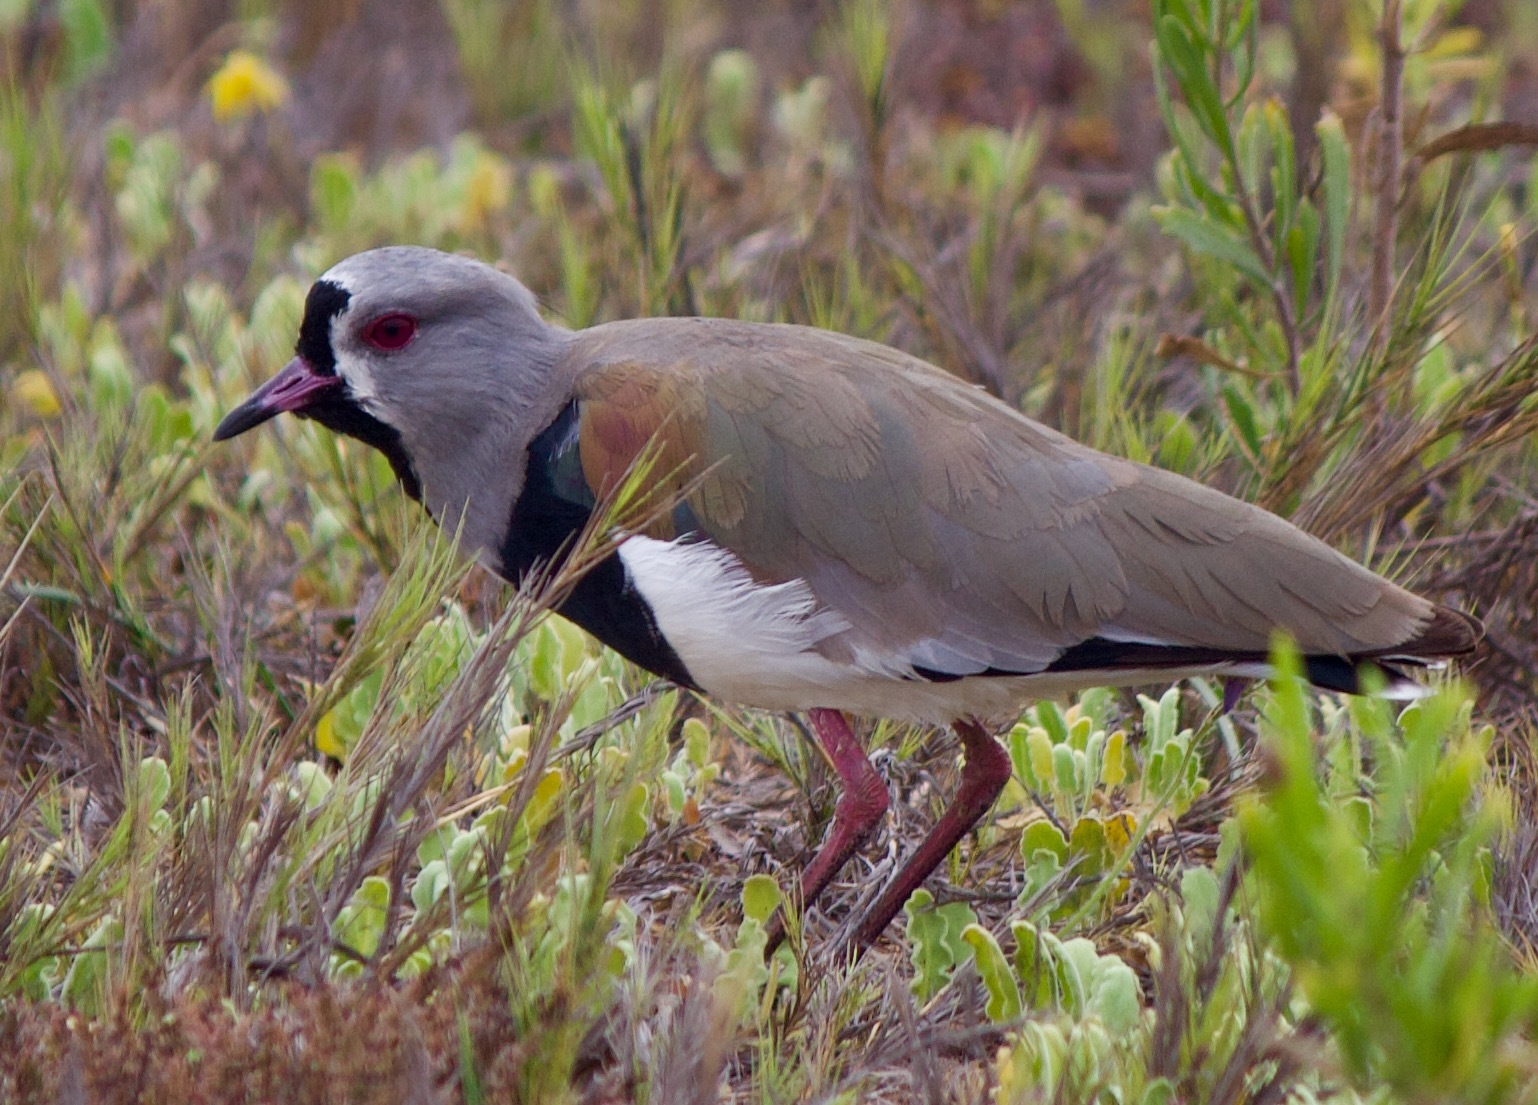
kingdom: Animalia
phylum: Chordata
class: Aves
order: Charadriiformes
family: Charadriidae
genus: Vanellus
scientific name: Vanellus chilensis
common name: Southern lapwing
